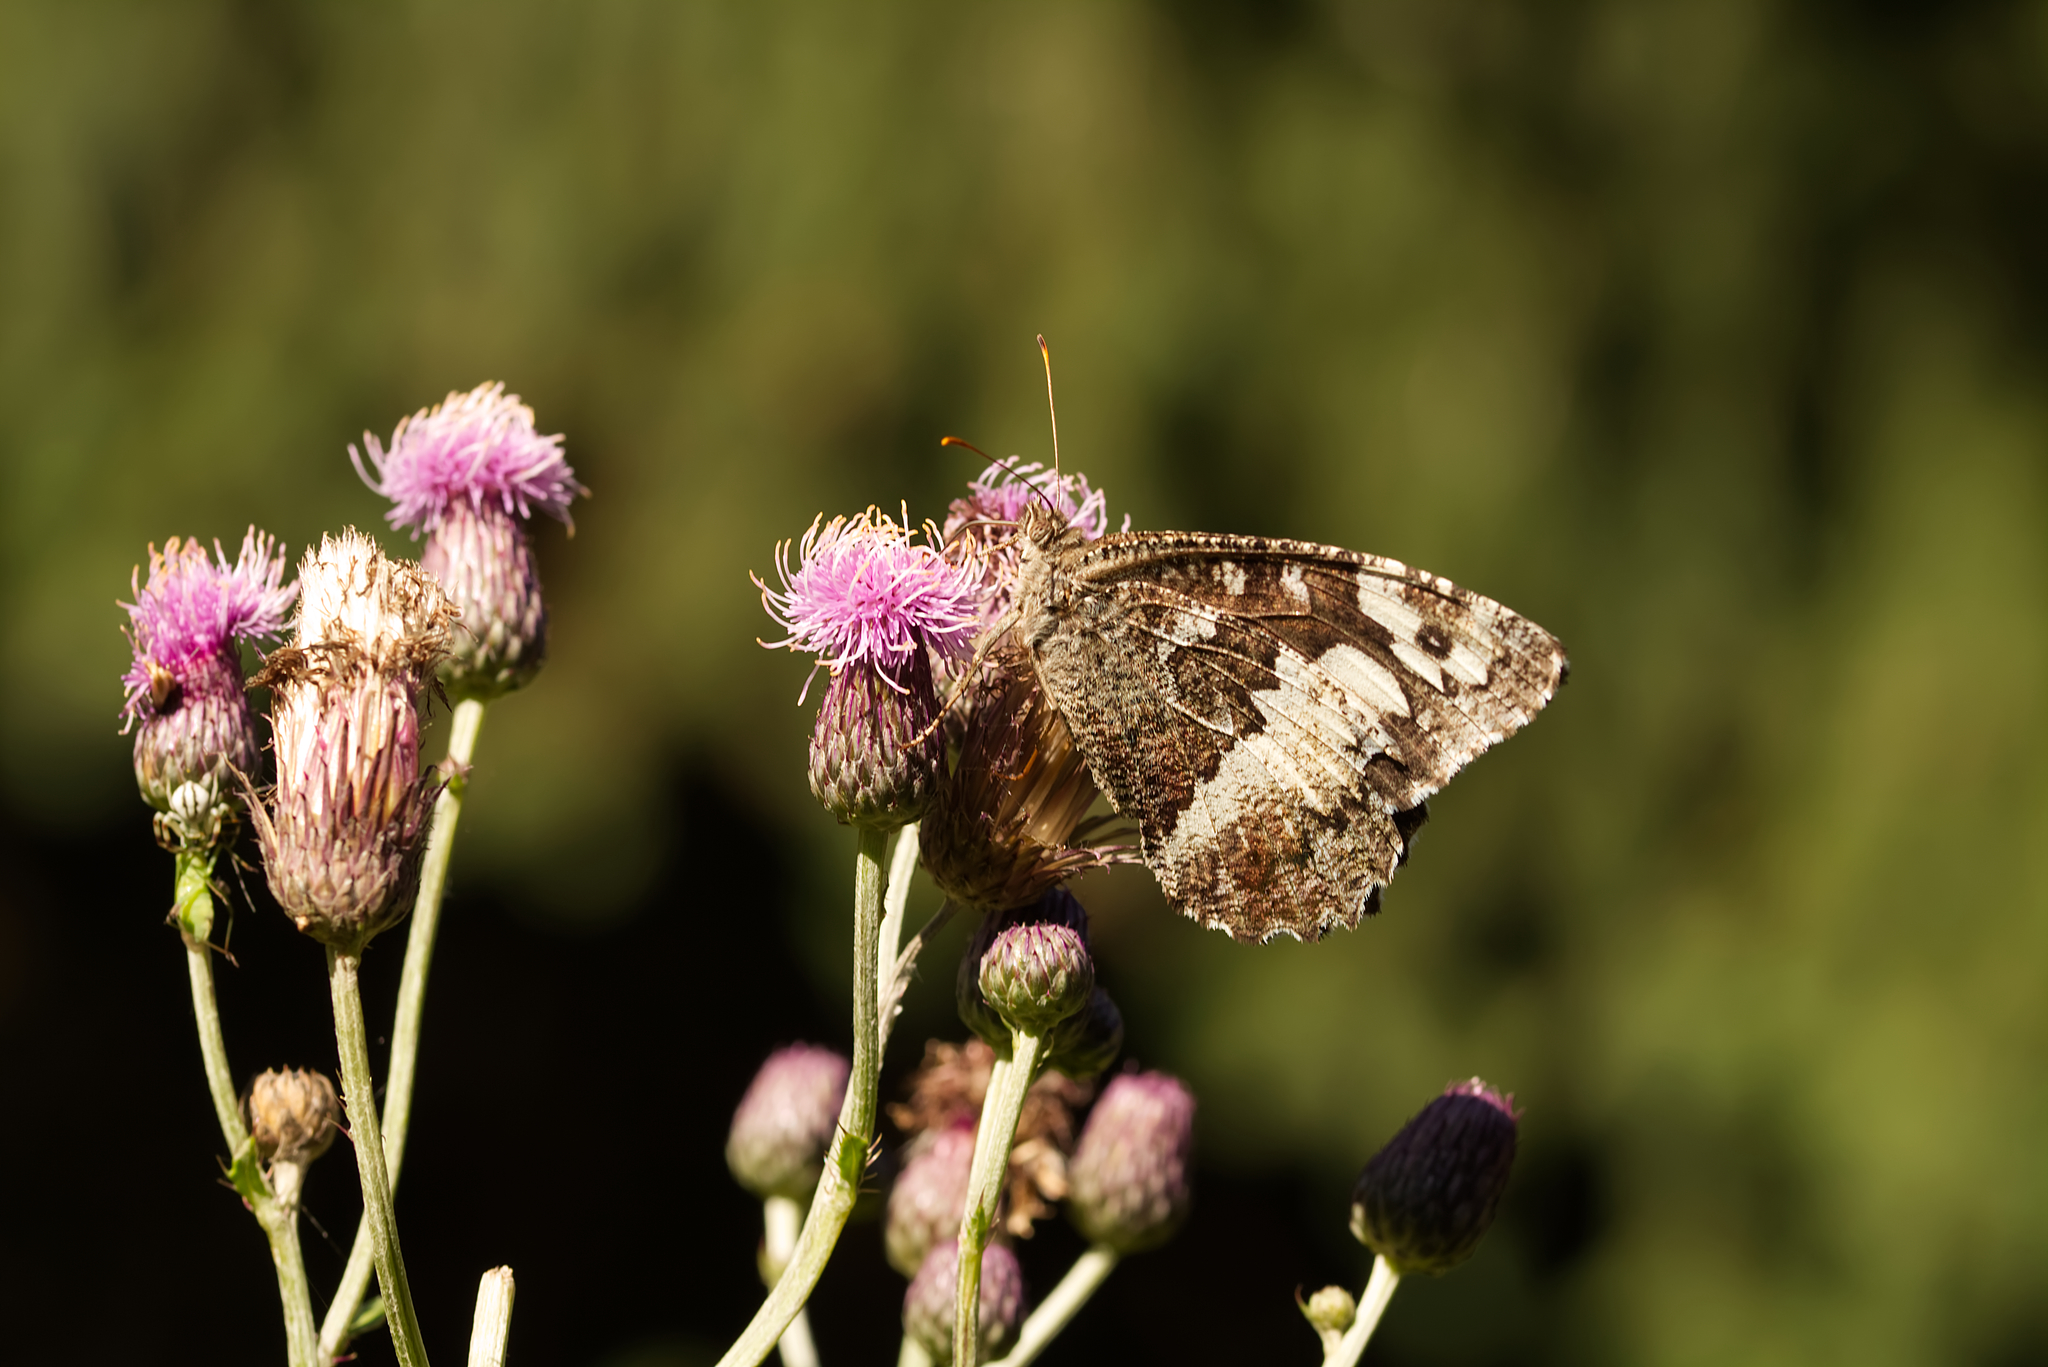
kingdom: Animalia
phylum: Arthropoda
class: Insecta
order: Lepidoptera
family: Lycaenidae
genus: Loweia
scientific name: Loweia tityrus
